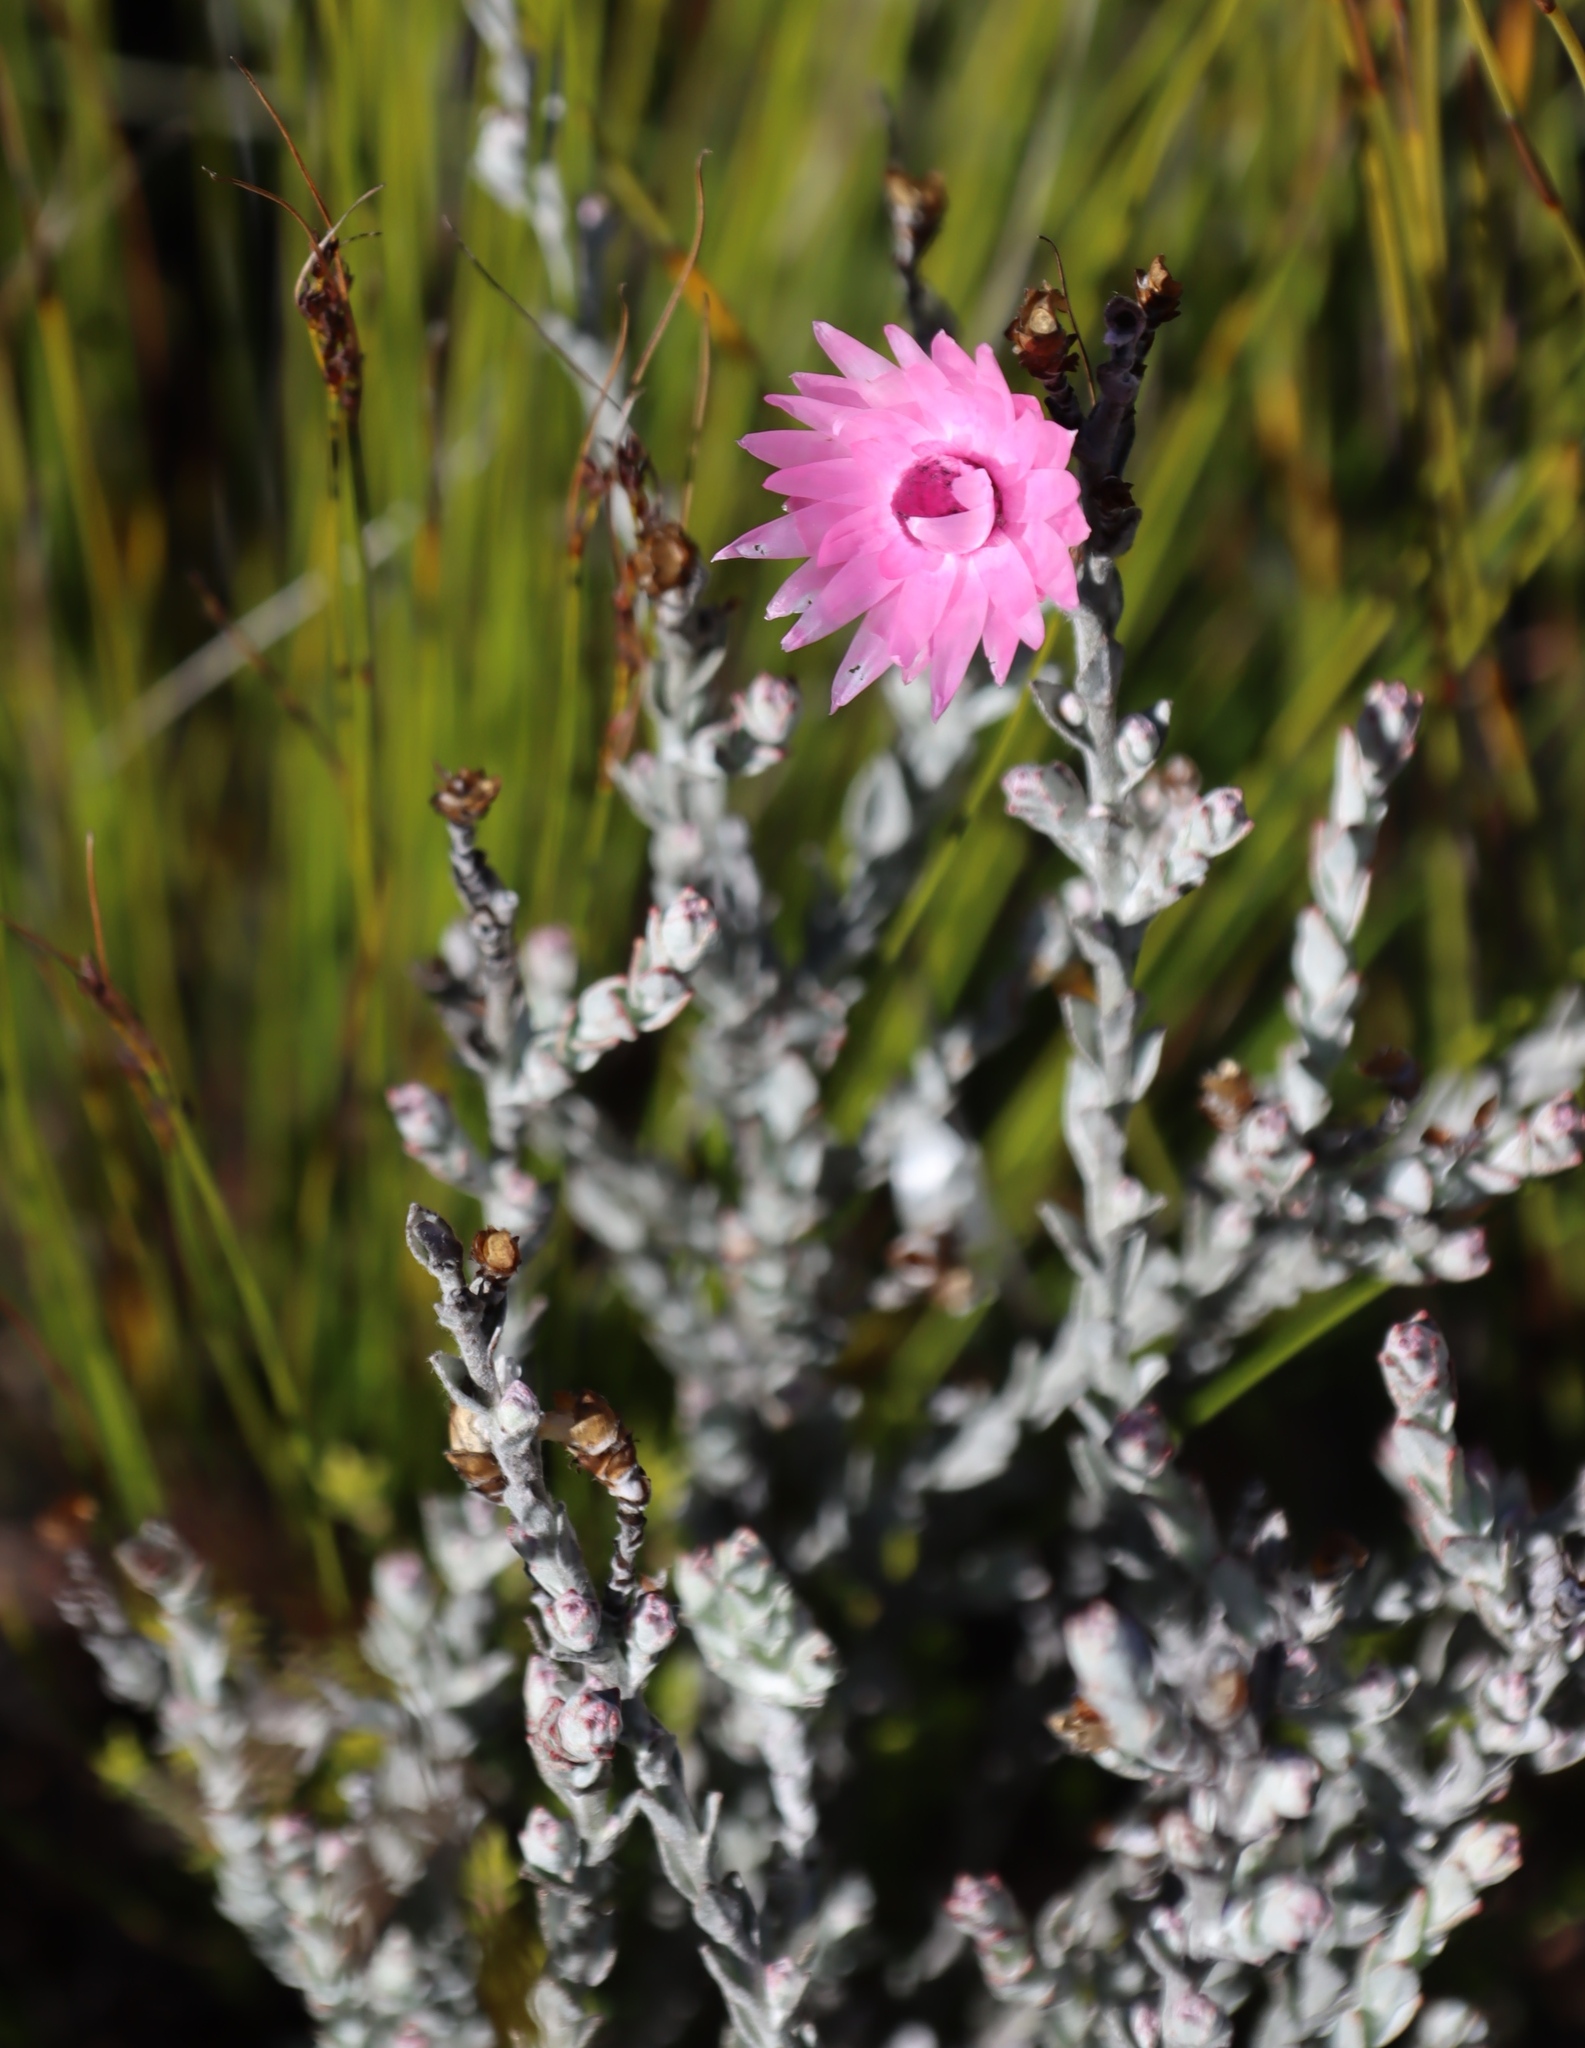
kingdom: Plantae
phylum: Tracheophyta
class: Magnoliopsida
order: Asterales
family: Asteraceae
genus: Syncarpha
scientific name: Syncarpha canescens
